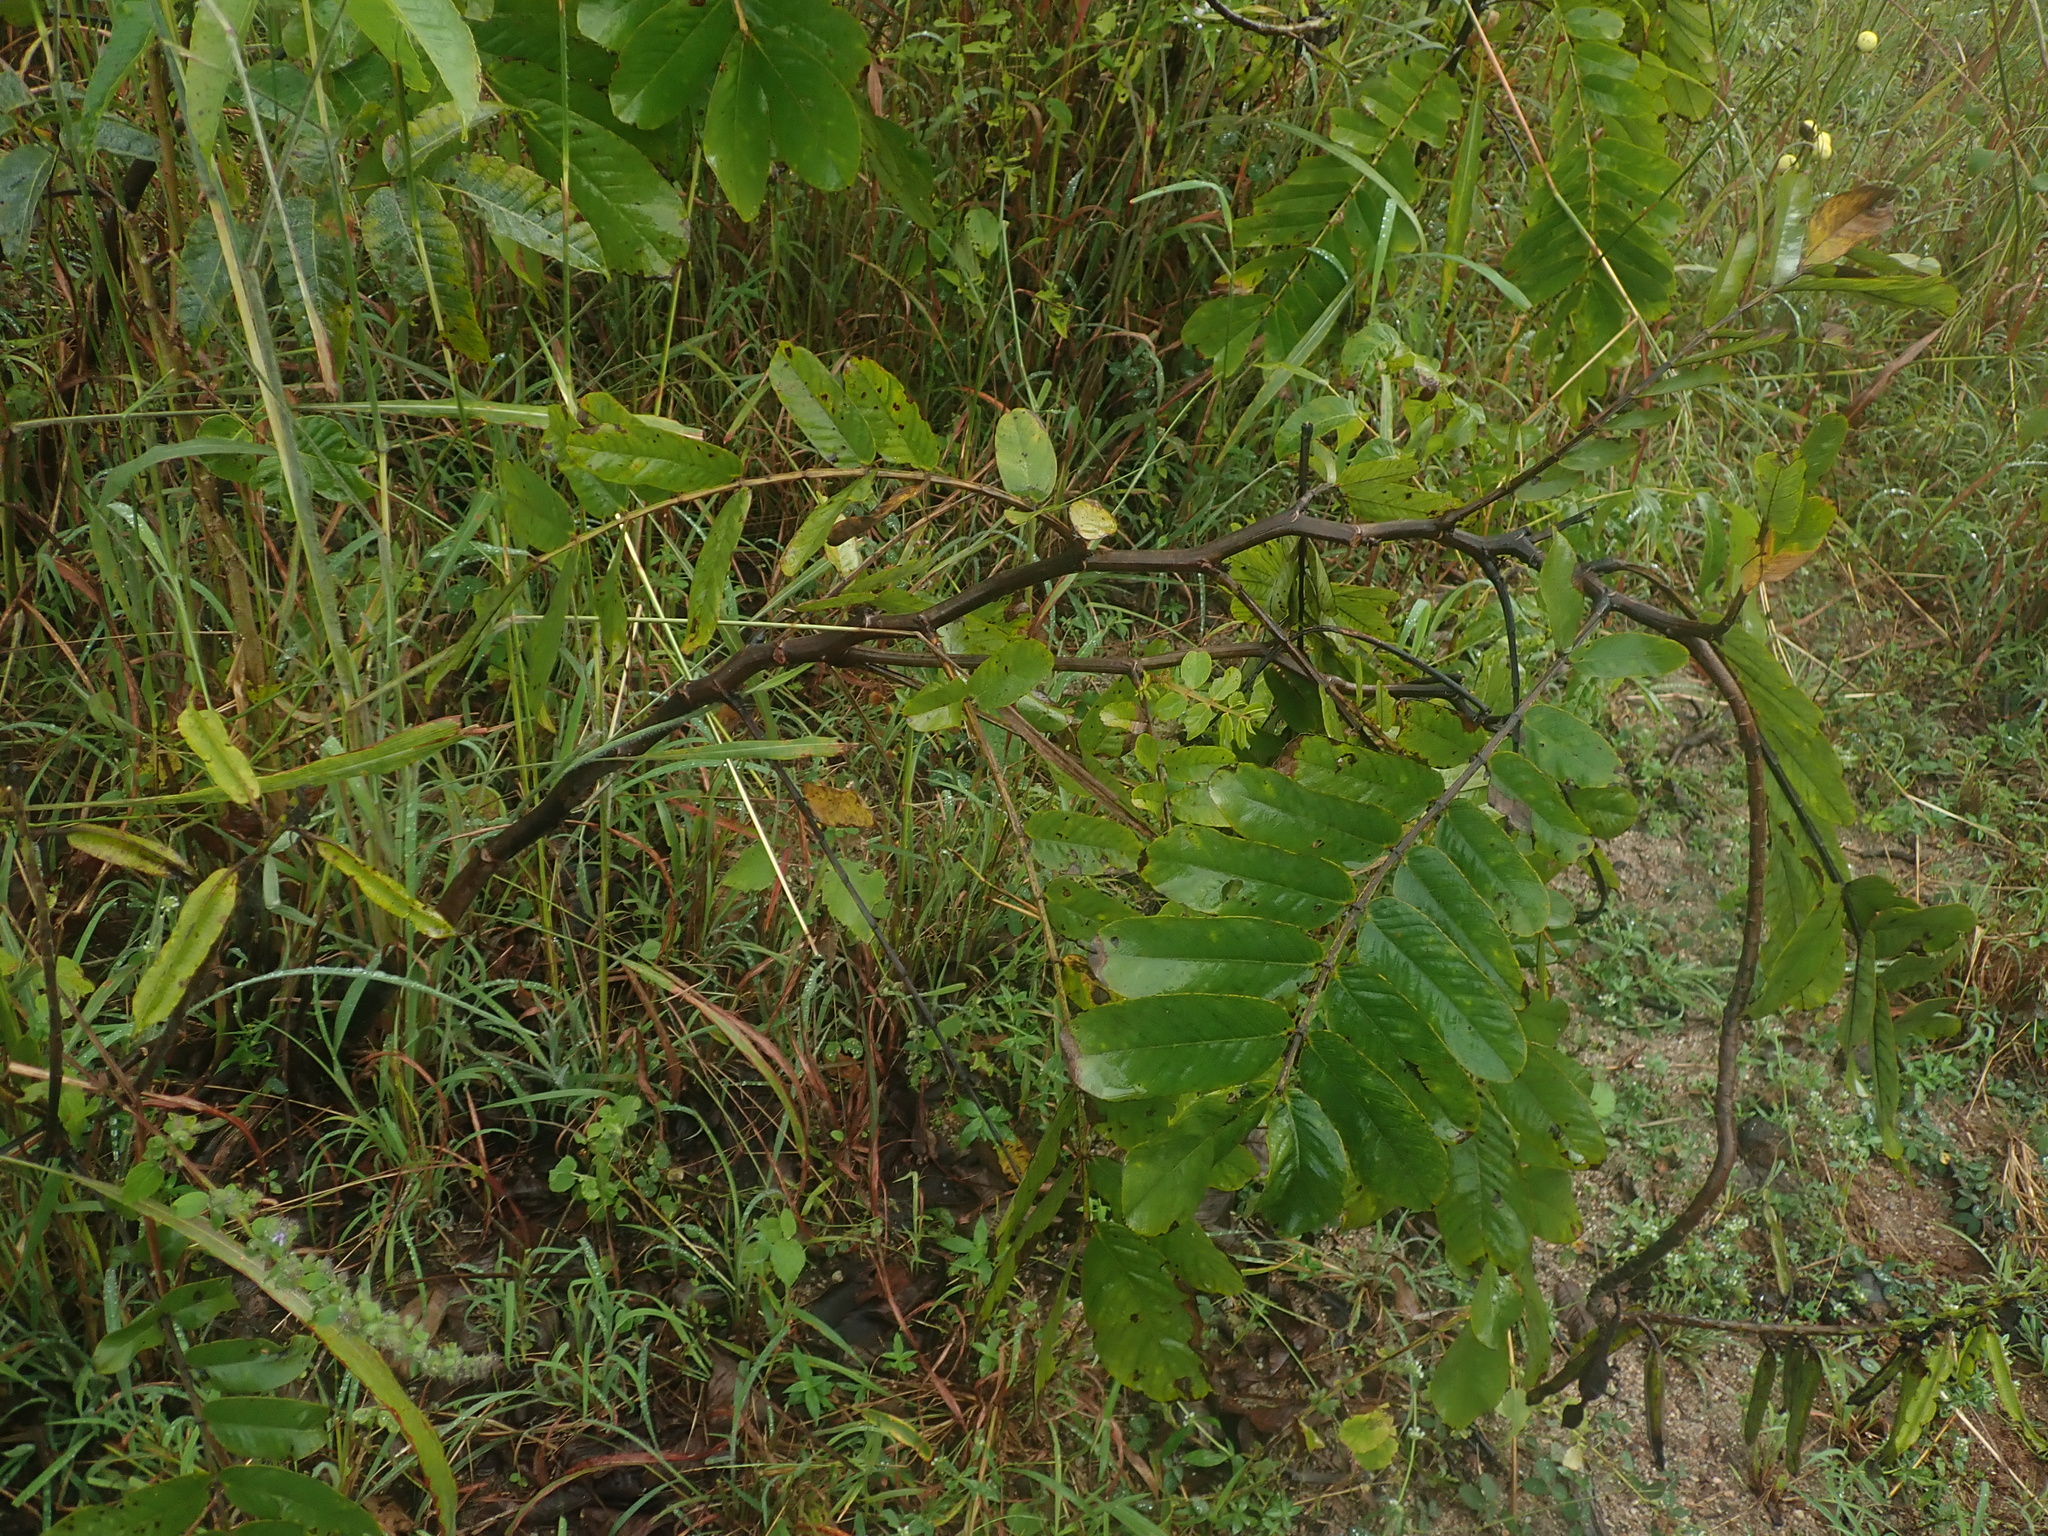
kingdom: Plantae
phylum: Tracheophyta
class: Magnoliopsida
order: Fabales
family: Fabaceae
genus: Senna
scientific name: Senna alata
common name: Emperor's candlesticks
